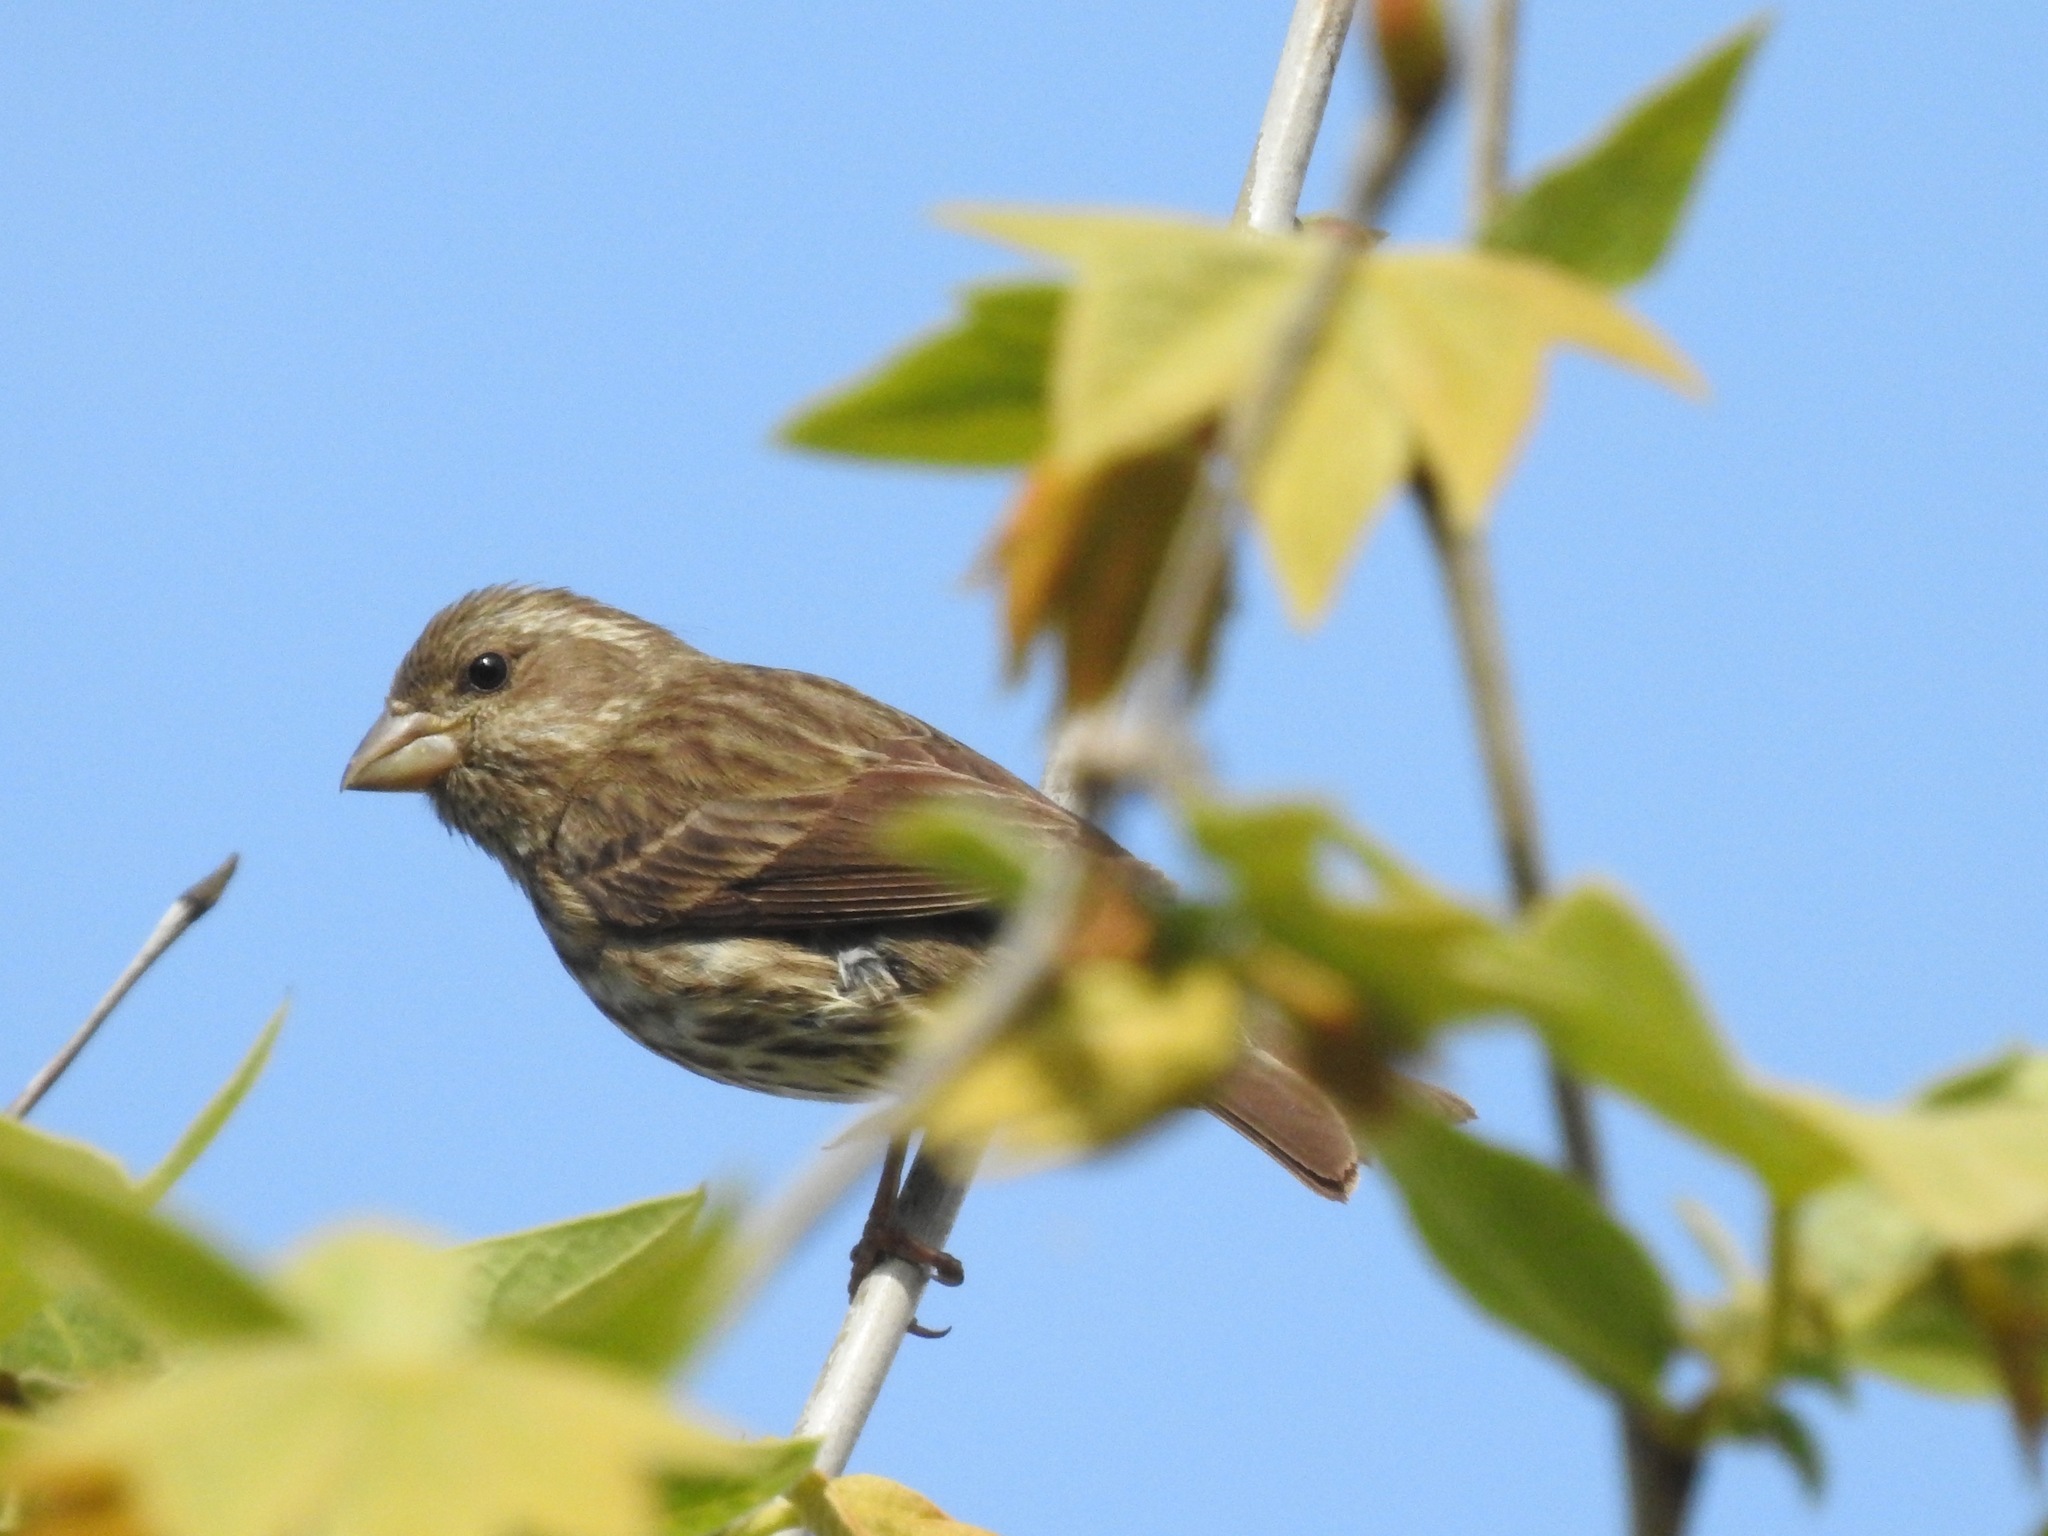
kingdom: Animalia
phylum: Chordata
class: Aves
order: Passeriformes
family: Fringillidae
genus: Haemorhous
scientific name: Haemorhous purpureus
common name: Purple finch
